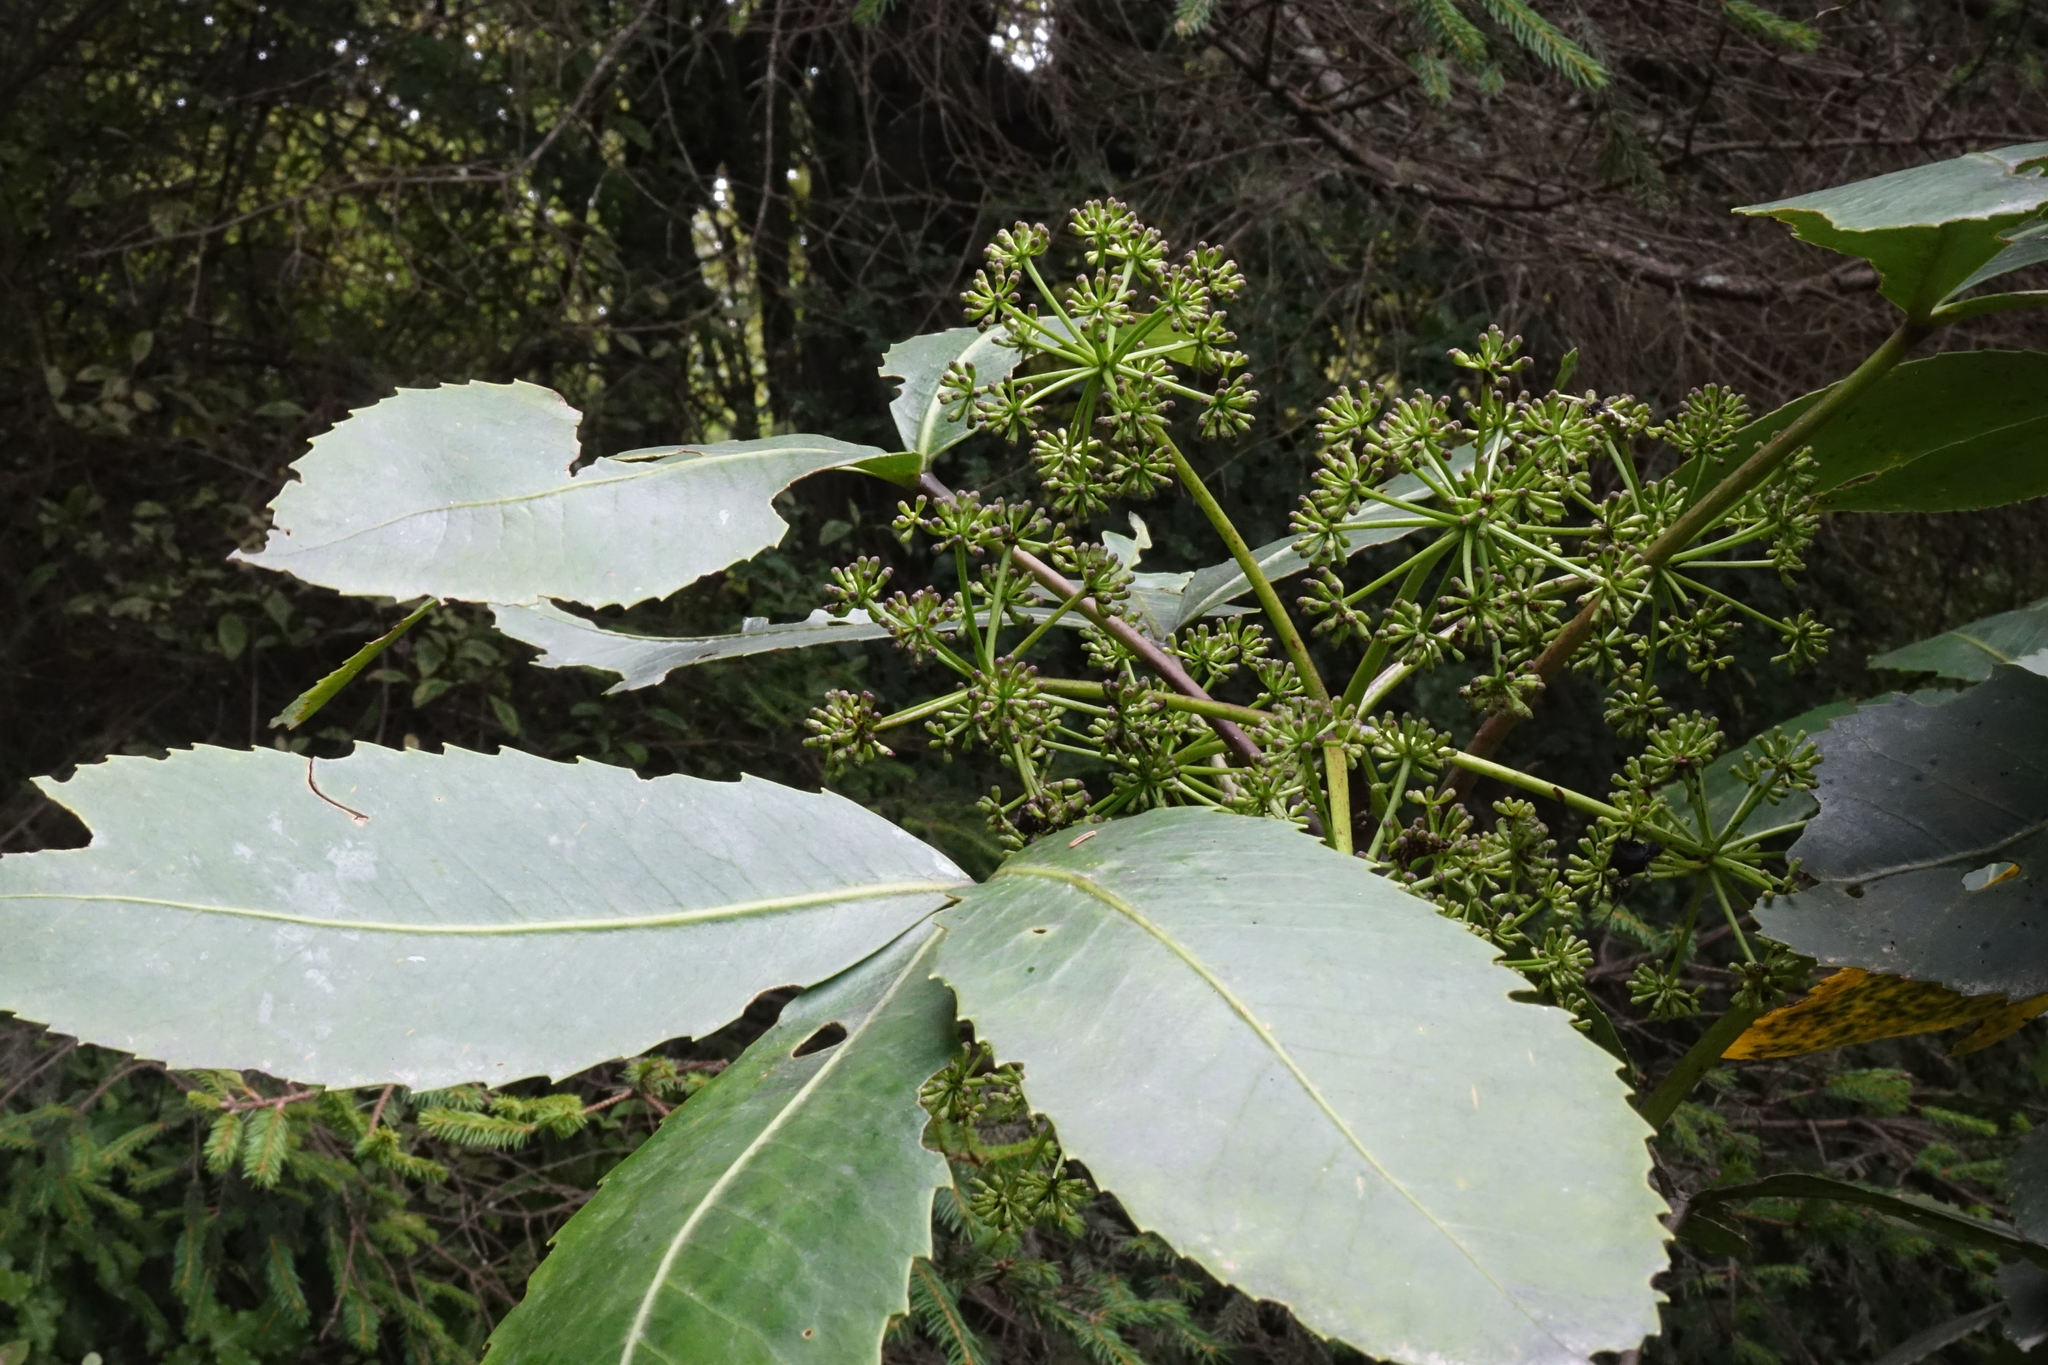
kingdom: Plantae
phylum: Tracheophyta
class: Magnoliopsida
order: Apiales
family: Araliaceae
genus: Neopanax
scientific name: Neopanax colensoi
